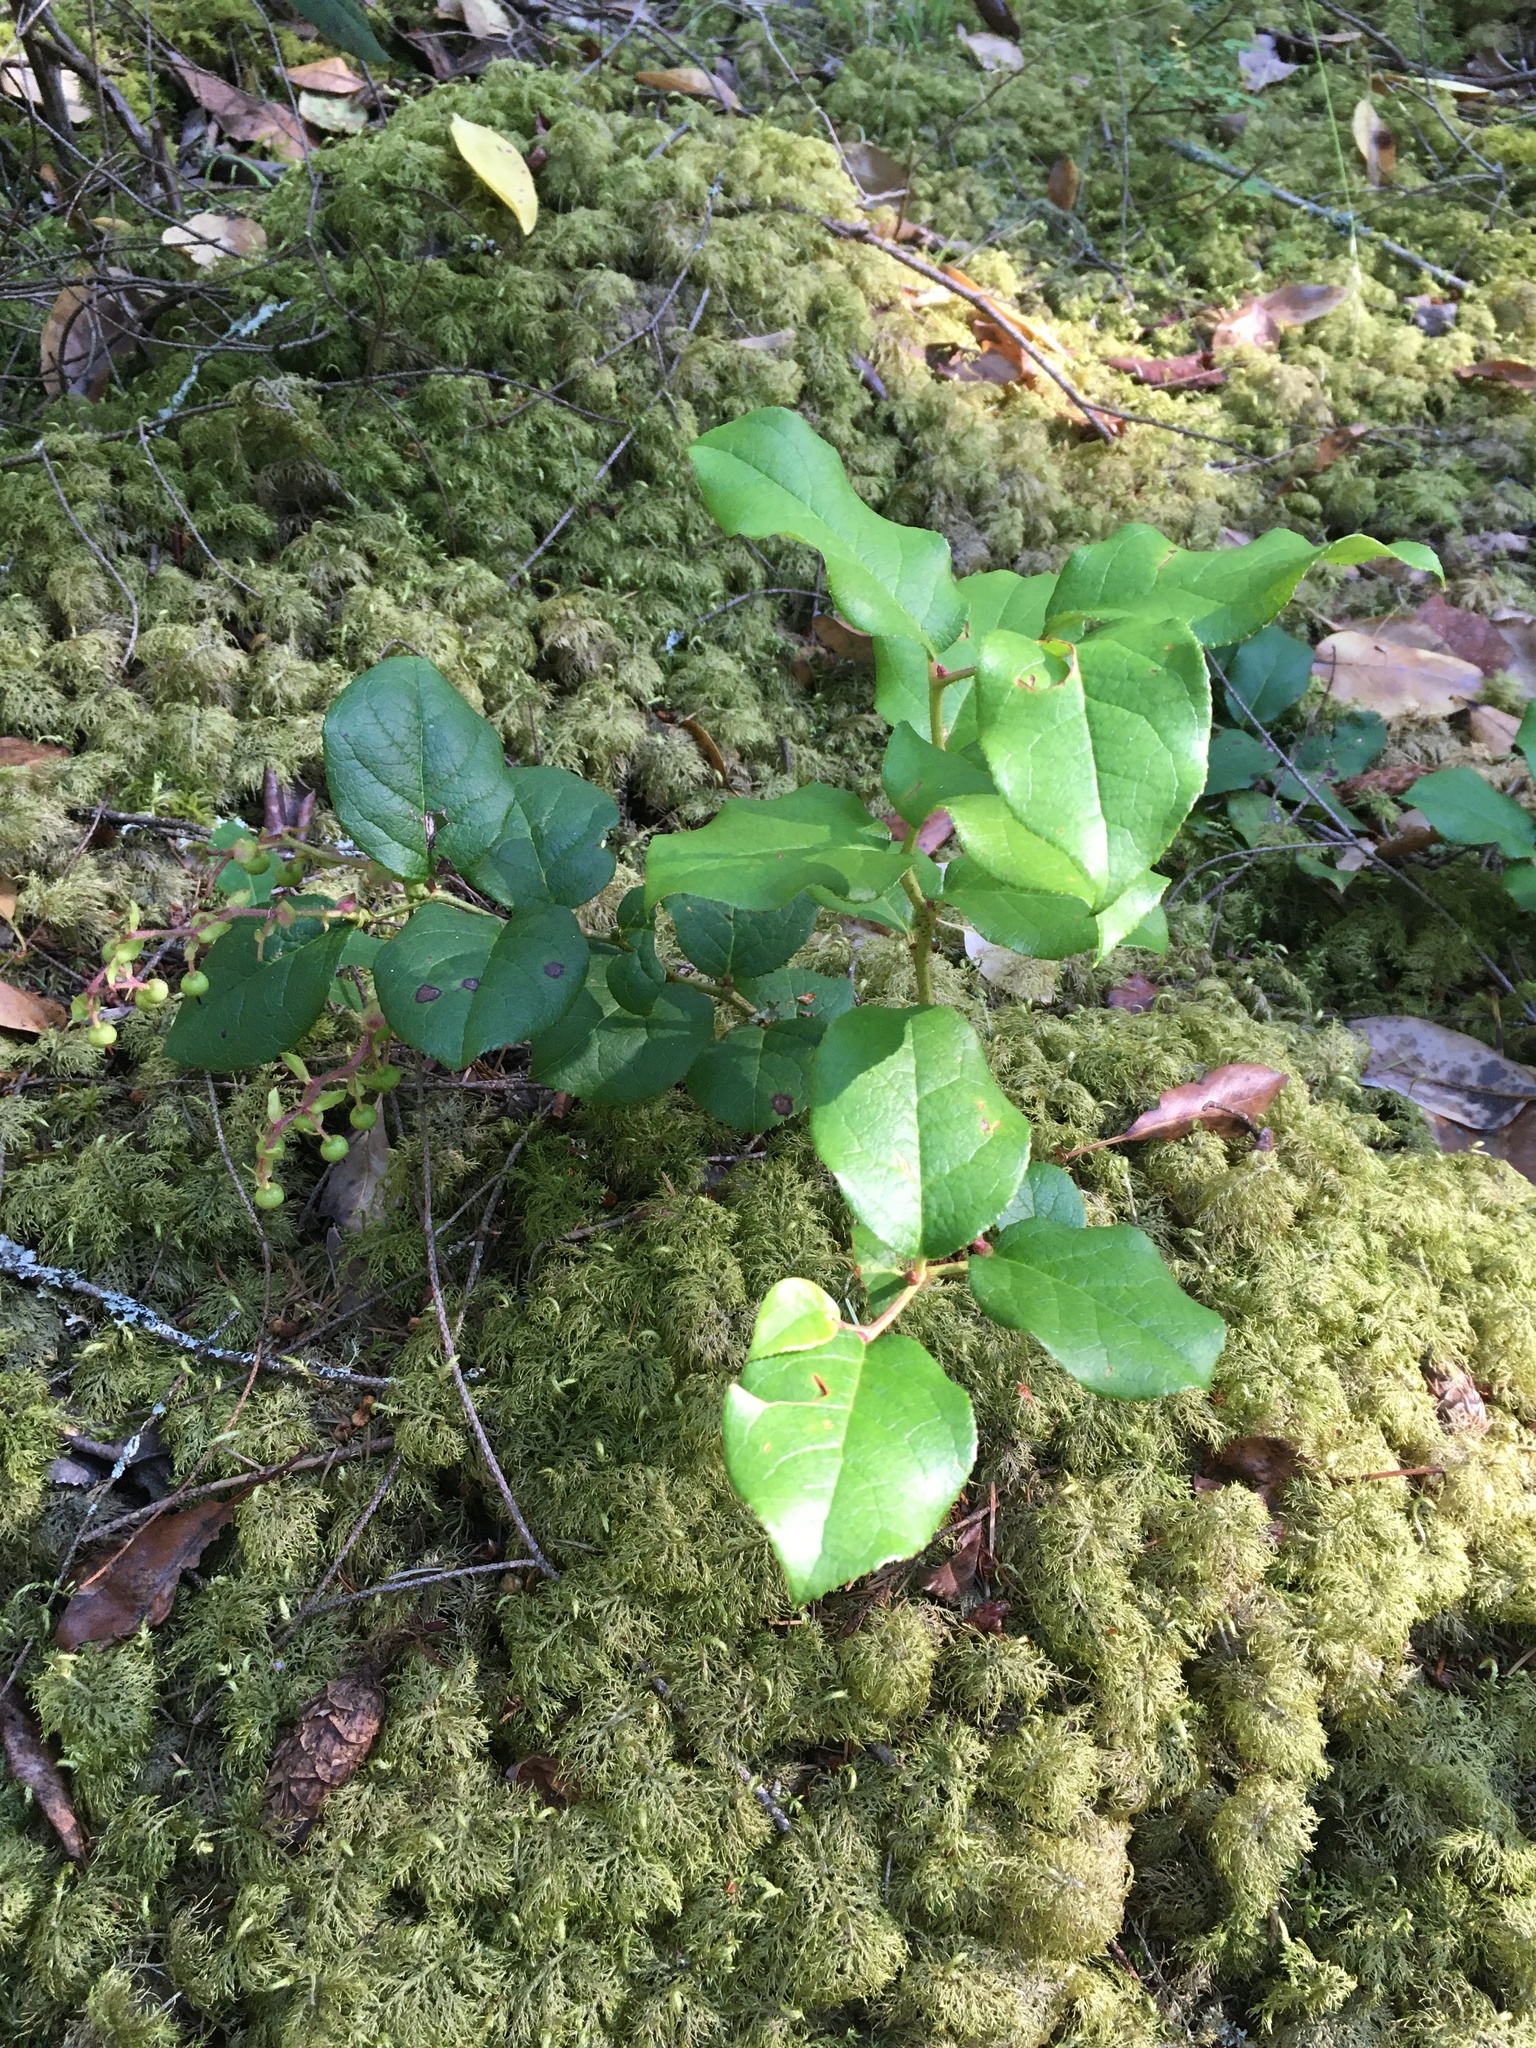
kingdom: Plantae
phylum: Tracheophyta
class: Magnoliopsida
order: Ericales
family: Ericaceae
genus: Gaultheria
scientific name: Gaultheria shallon
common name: Shallon
